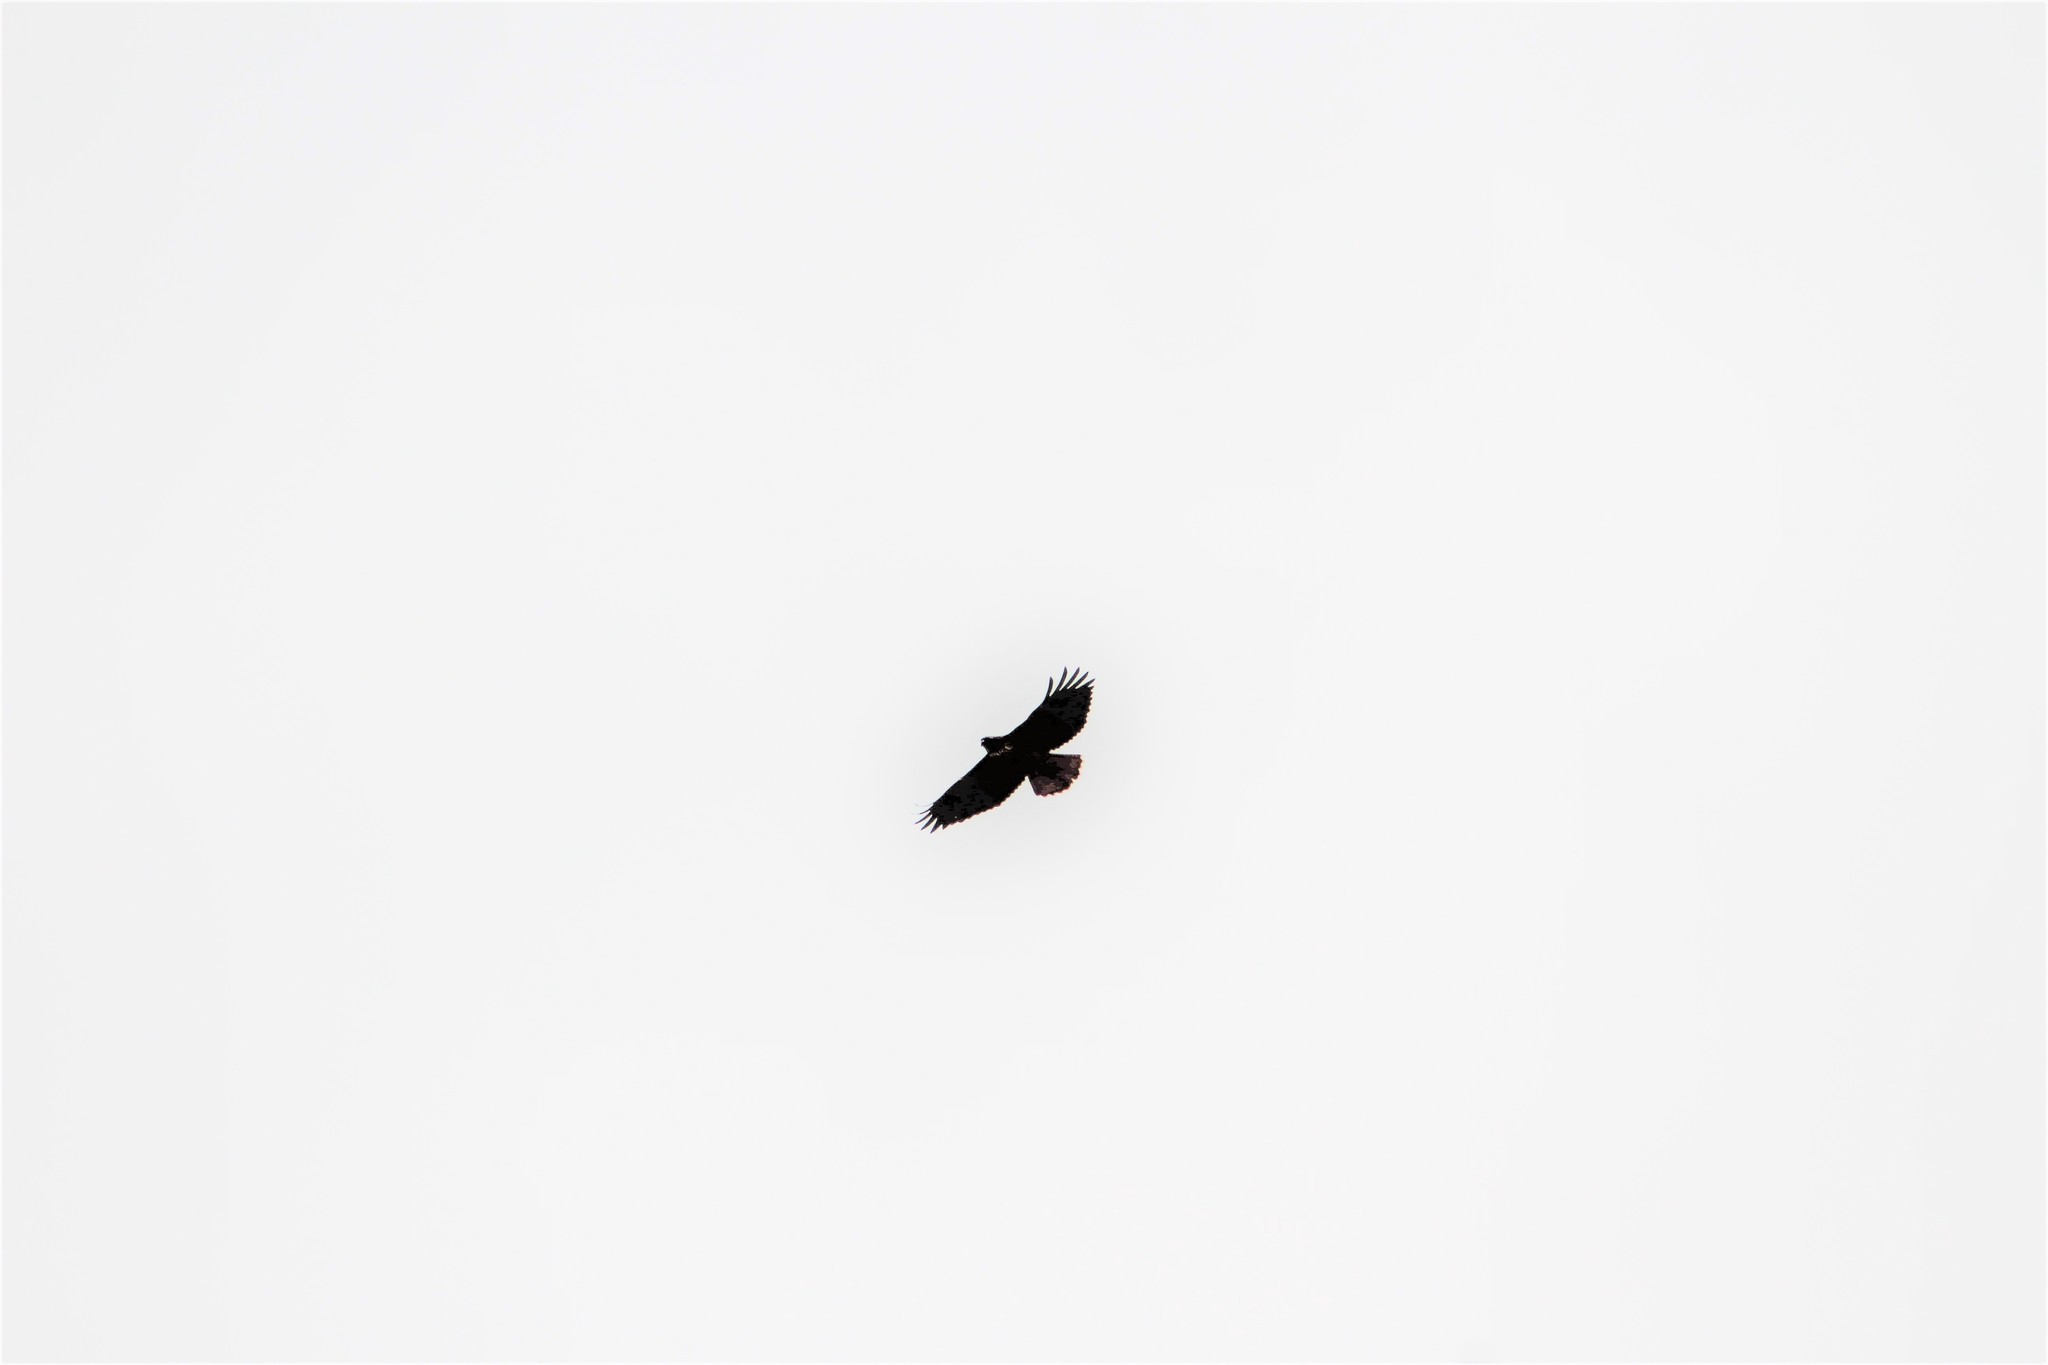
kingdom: Animalia
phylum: Chordata
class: Aves
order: Accipitriformes
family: Accipitridae
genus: Buteo
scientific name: Buteo jamaicensis
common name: Red-tailed hawk
